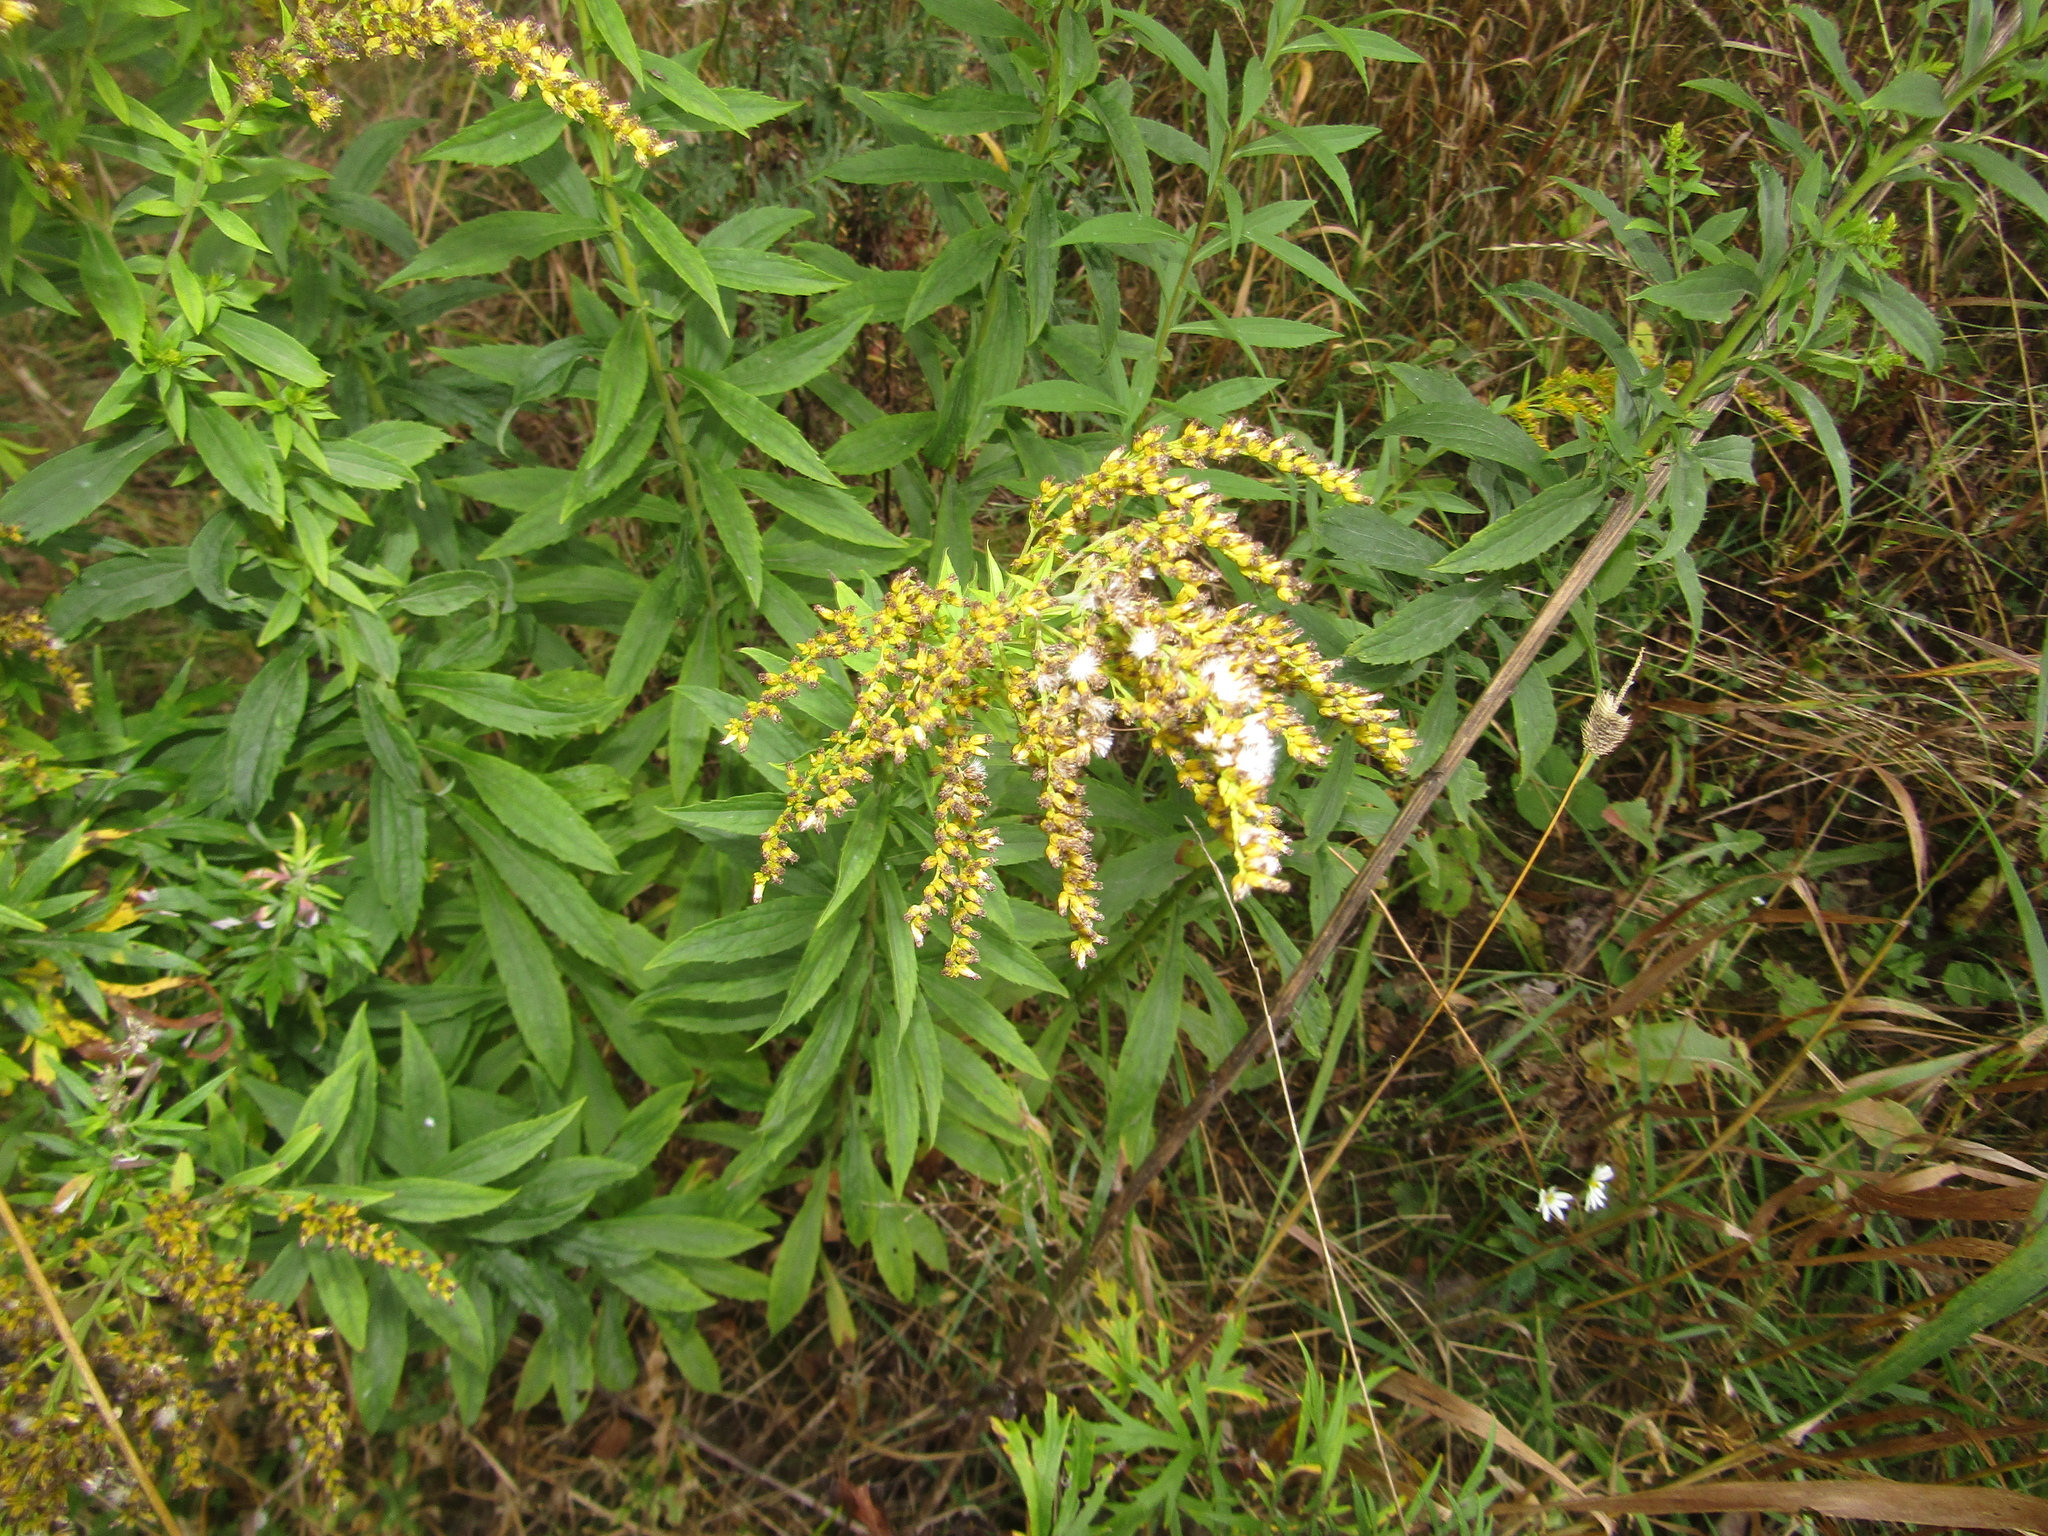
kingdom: Plantae
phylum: Tracheophyta
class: Magnoliopsida
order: Asterales
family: Asteraceae
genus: Solidago
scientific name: Solidago canadensis
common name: Canada goldenrod
